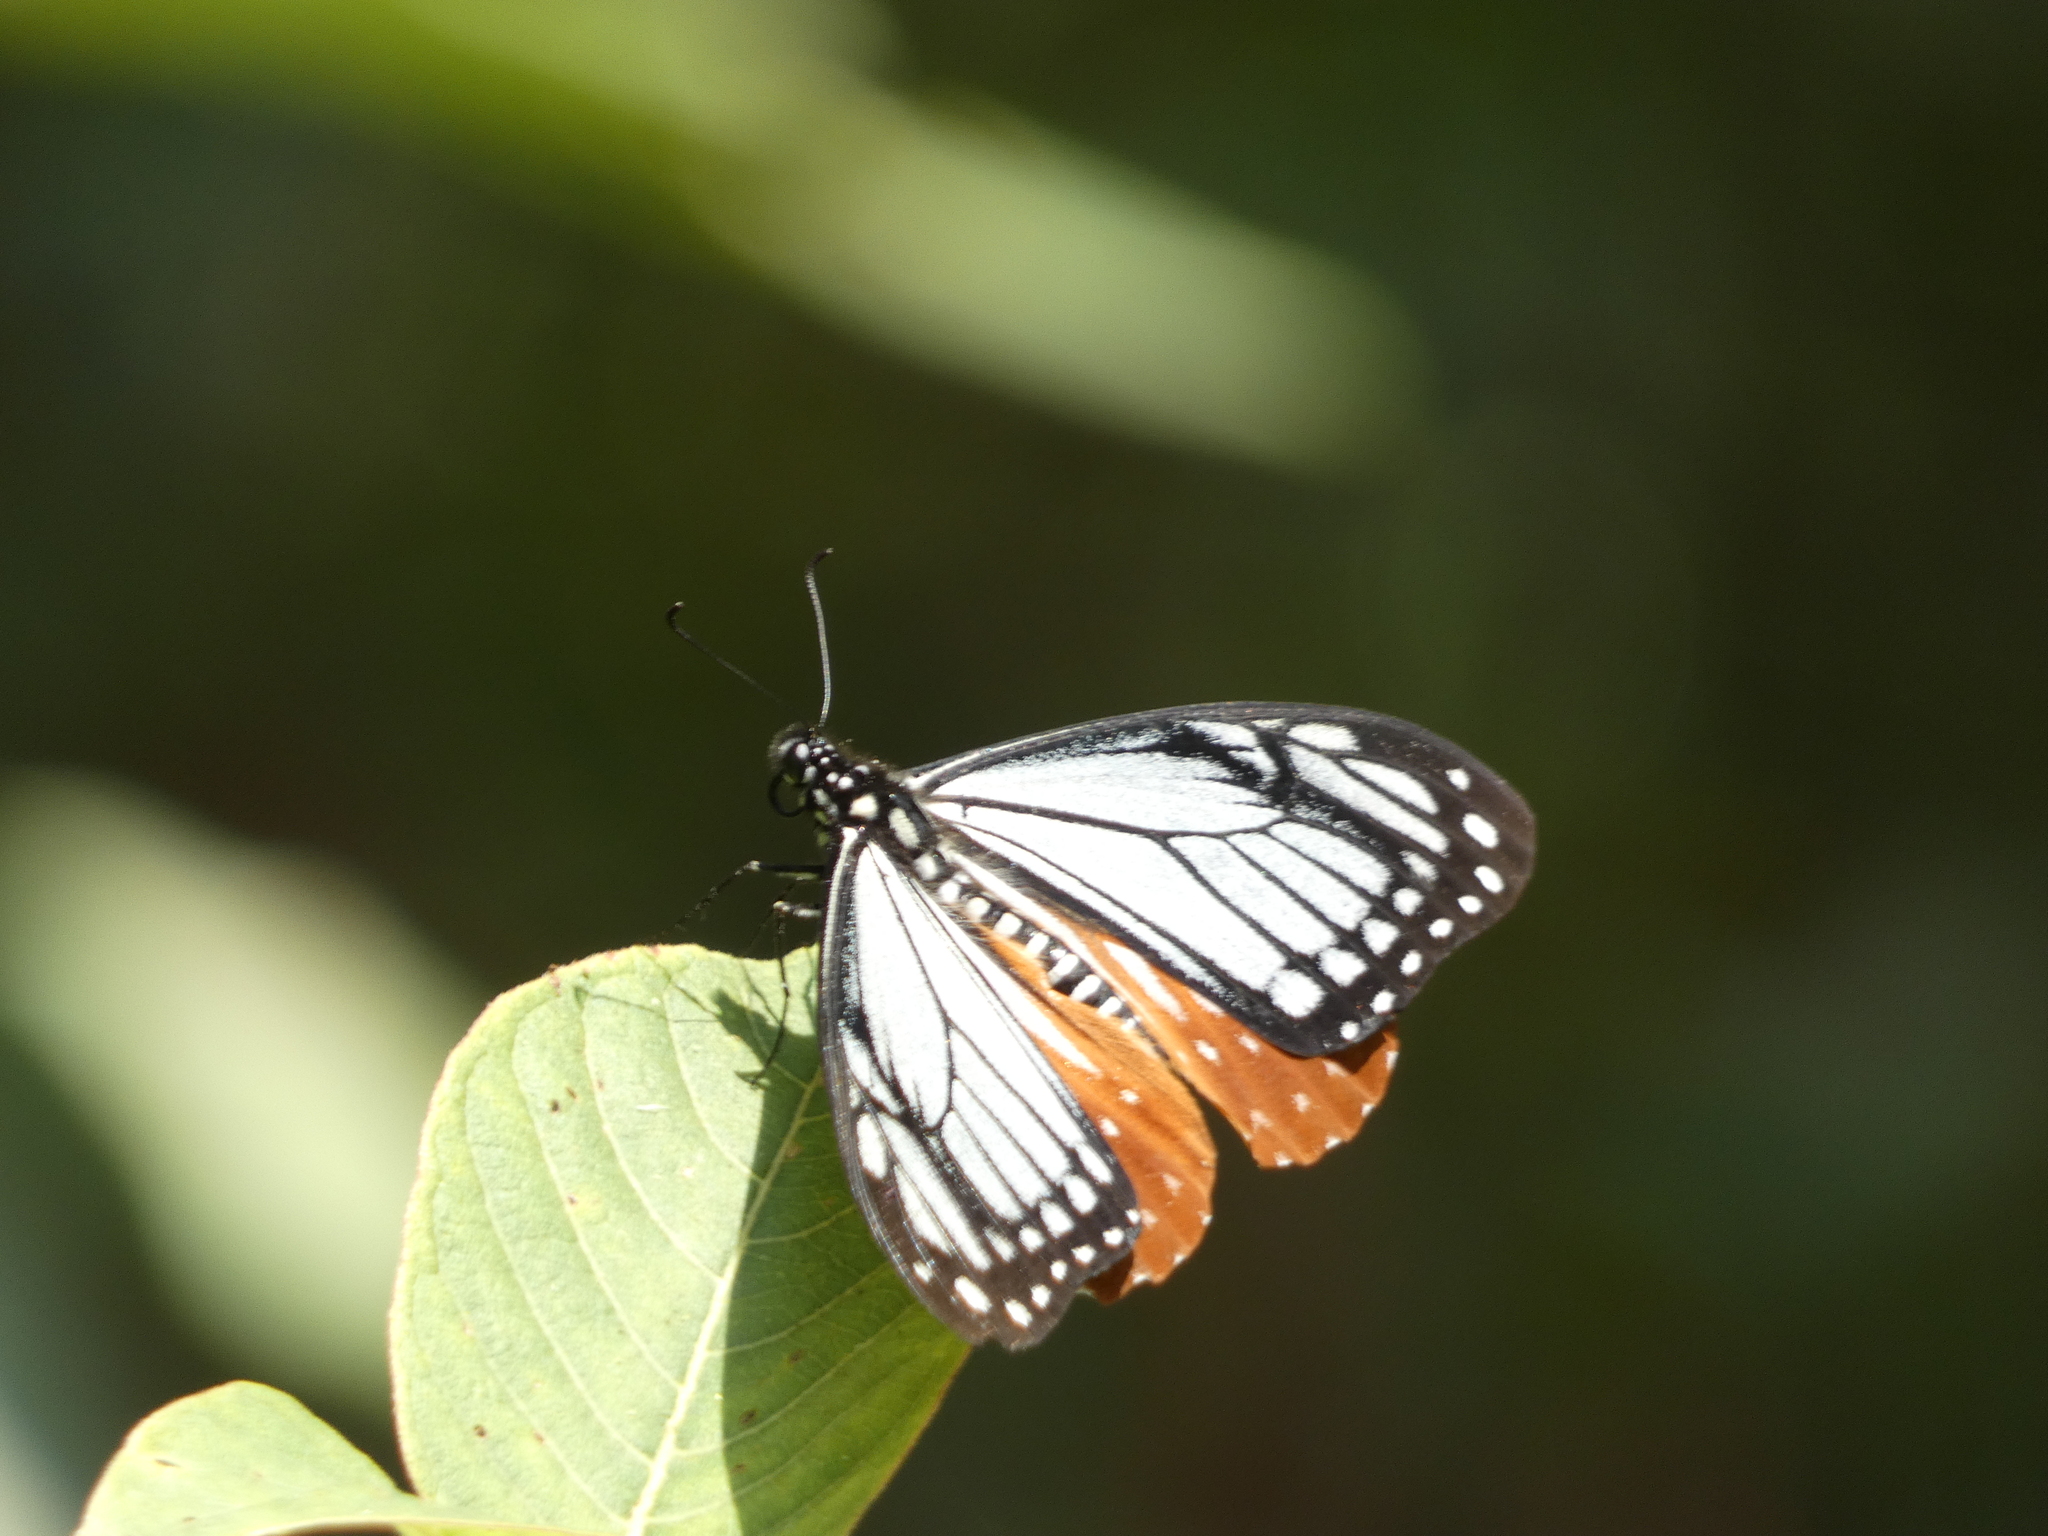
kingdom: Animalia
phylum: Arthropoda
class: Insecta
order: Lepidoptera
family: Lycaenidae
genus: Plebicula
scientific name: Plebicula escheri
